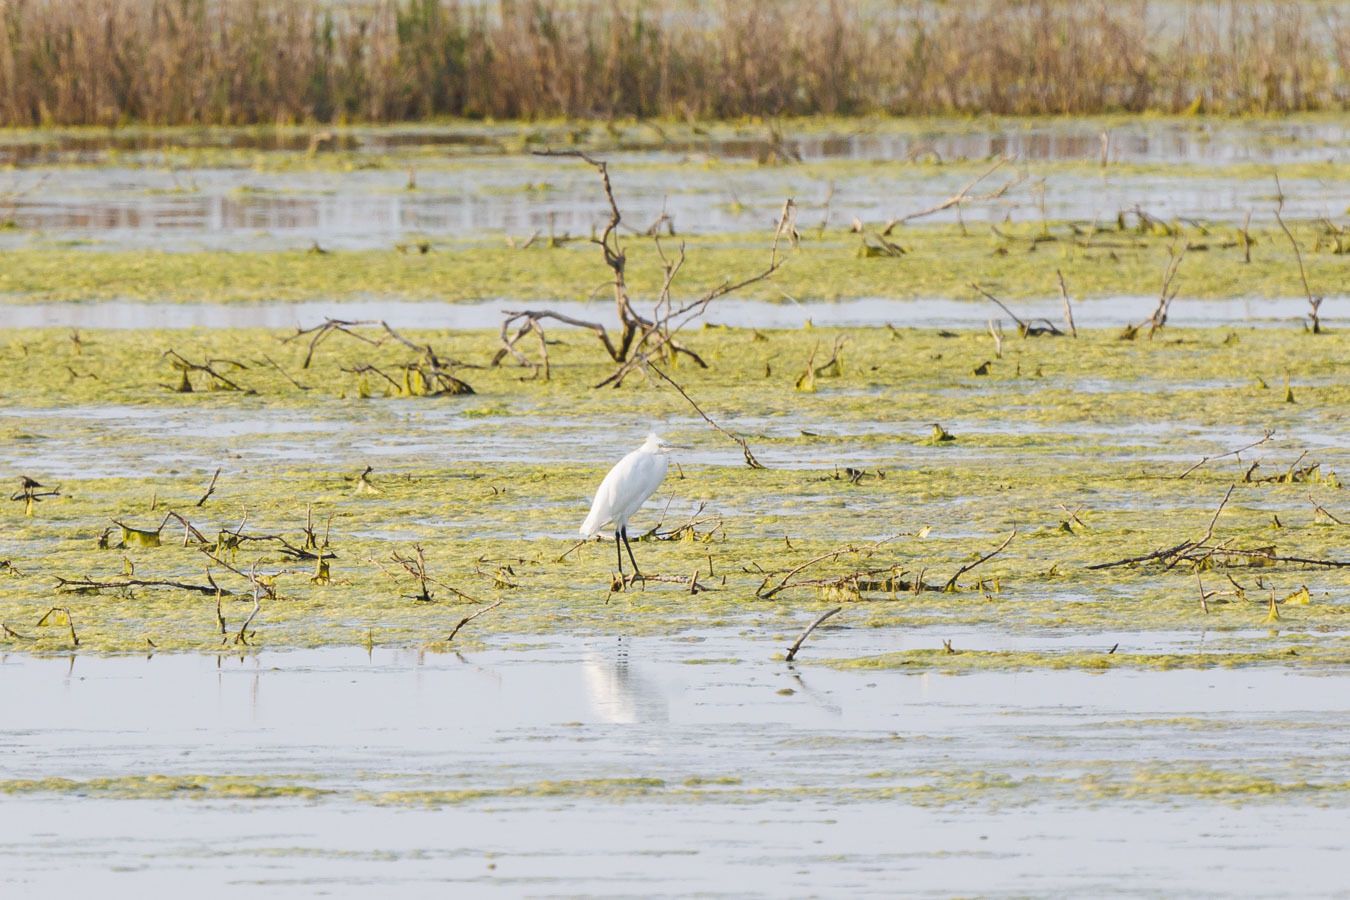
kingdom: Animalia
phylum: Chordata
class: Aves
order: Pelecaniformes
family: Ardeidae
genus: Egretta
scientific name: Egretta garzetta
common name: Little egret
